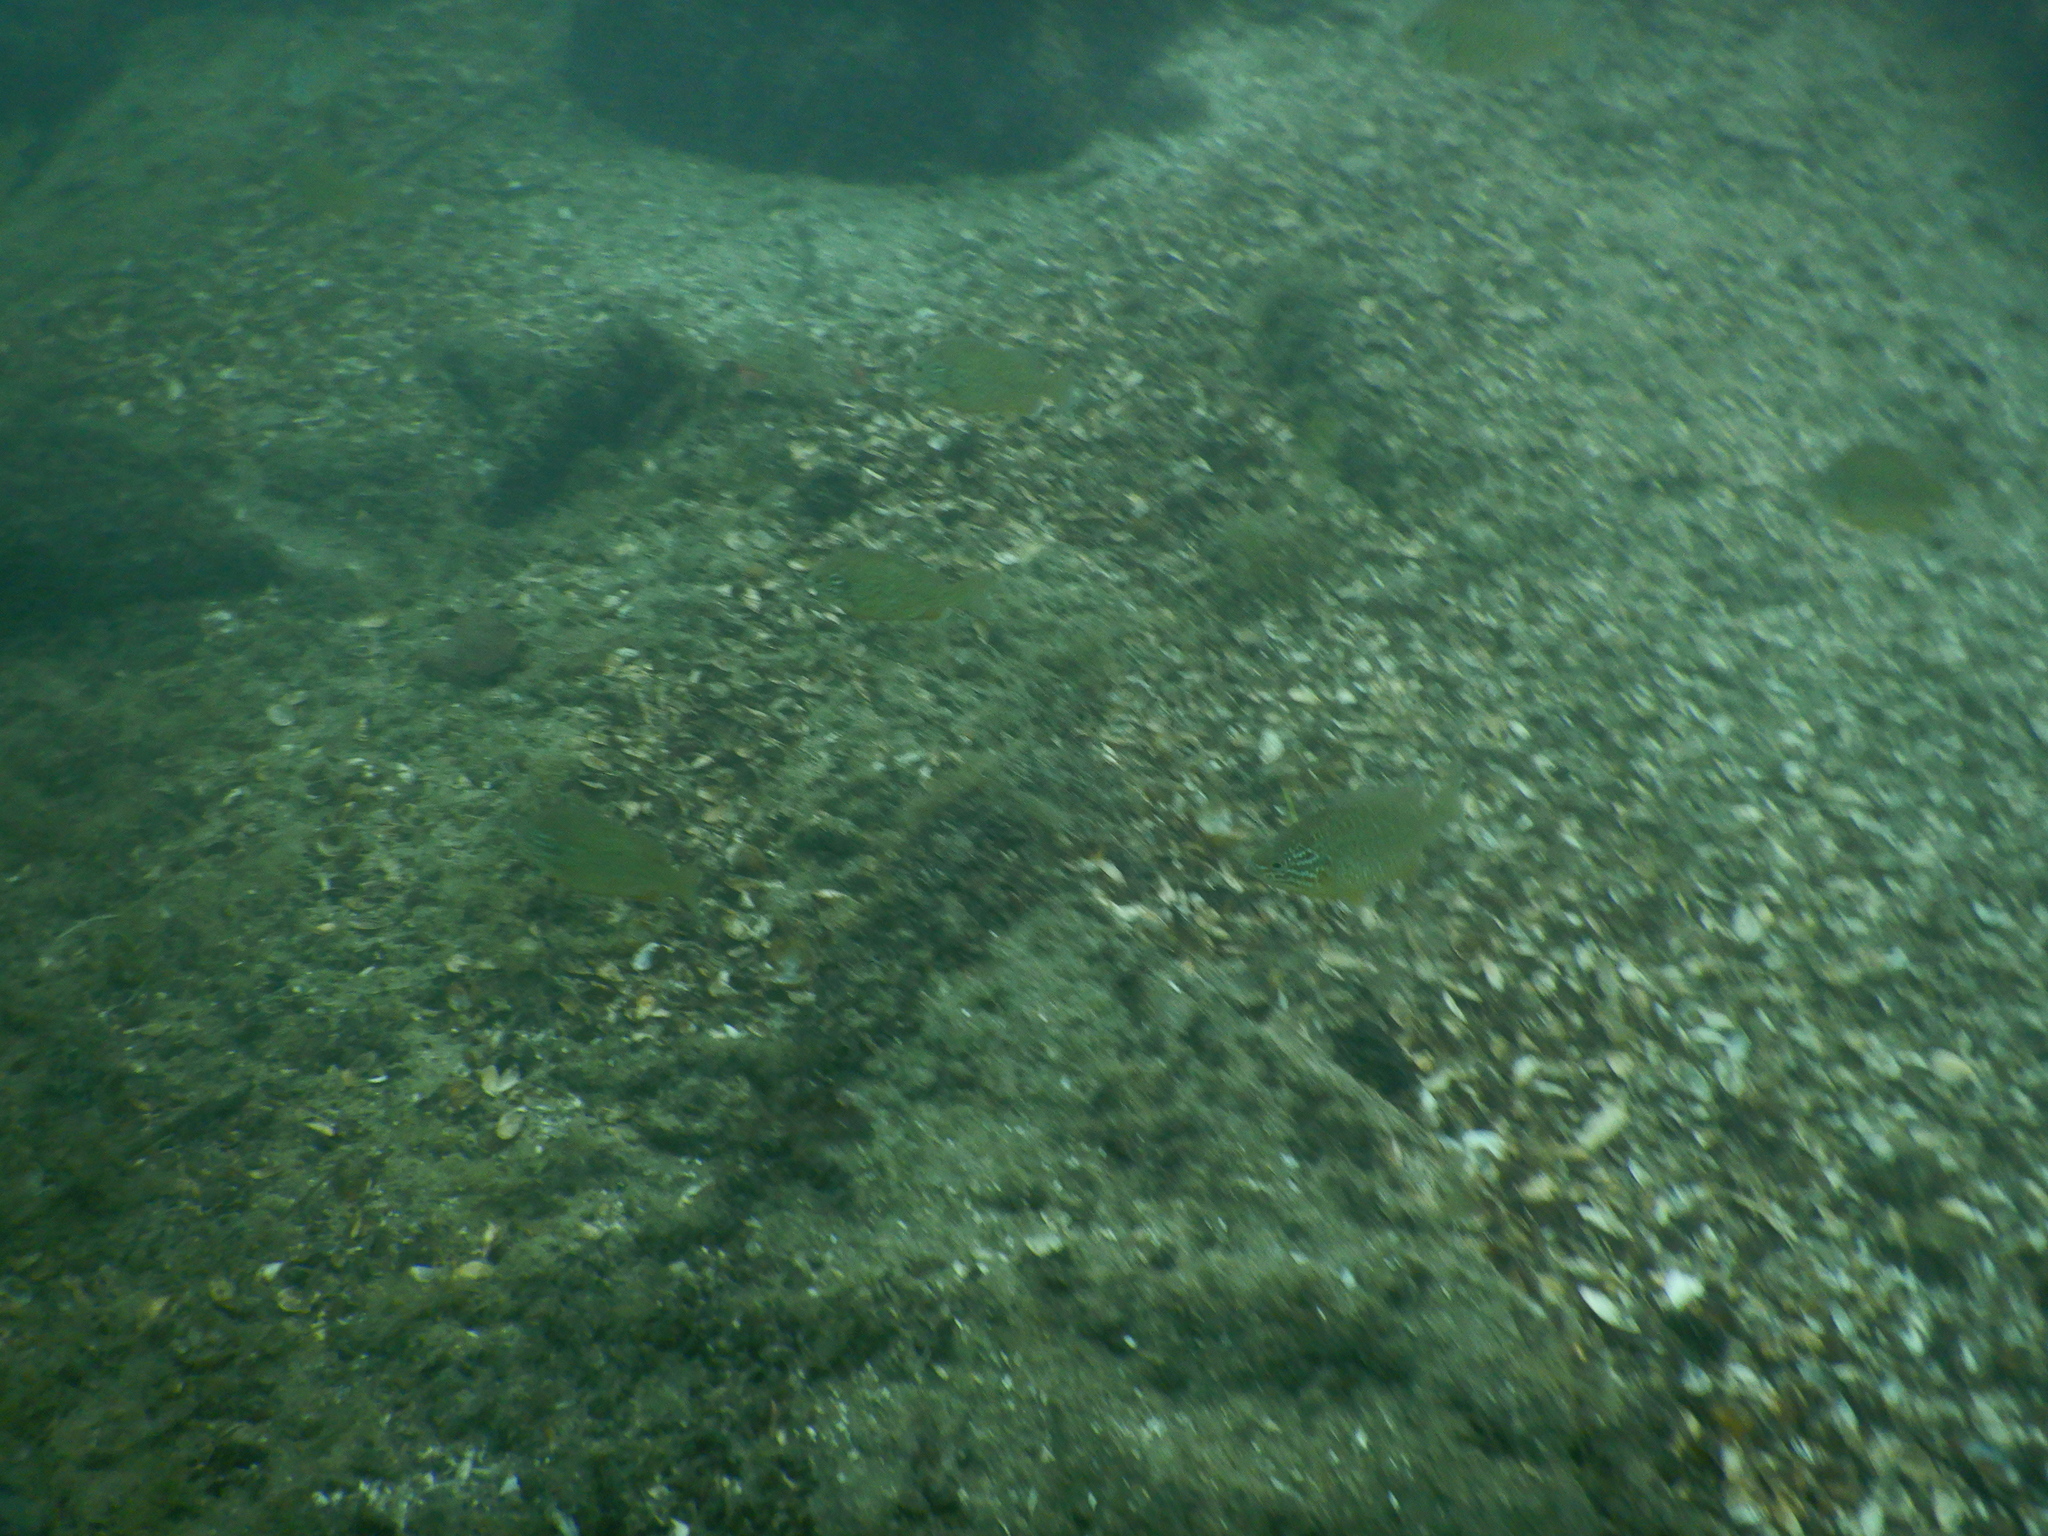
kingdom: Animalia
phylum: Chordata
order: Perciformes
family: Centrarchidae
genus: Lepomis
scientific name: Lepomis gibbosus
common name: Pumpkinseed
